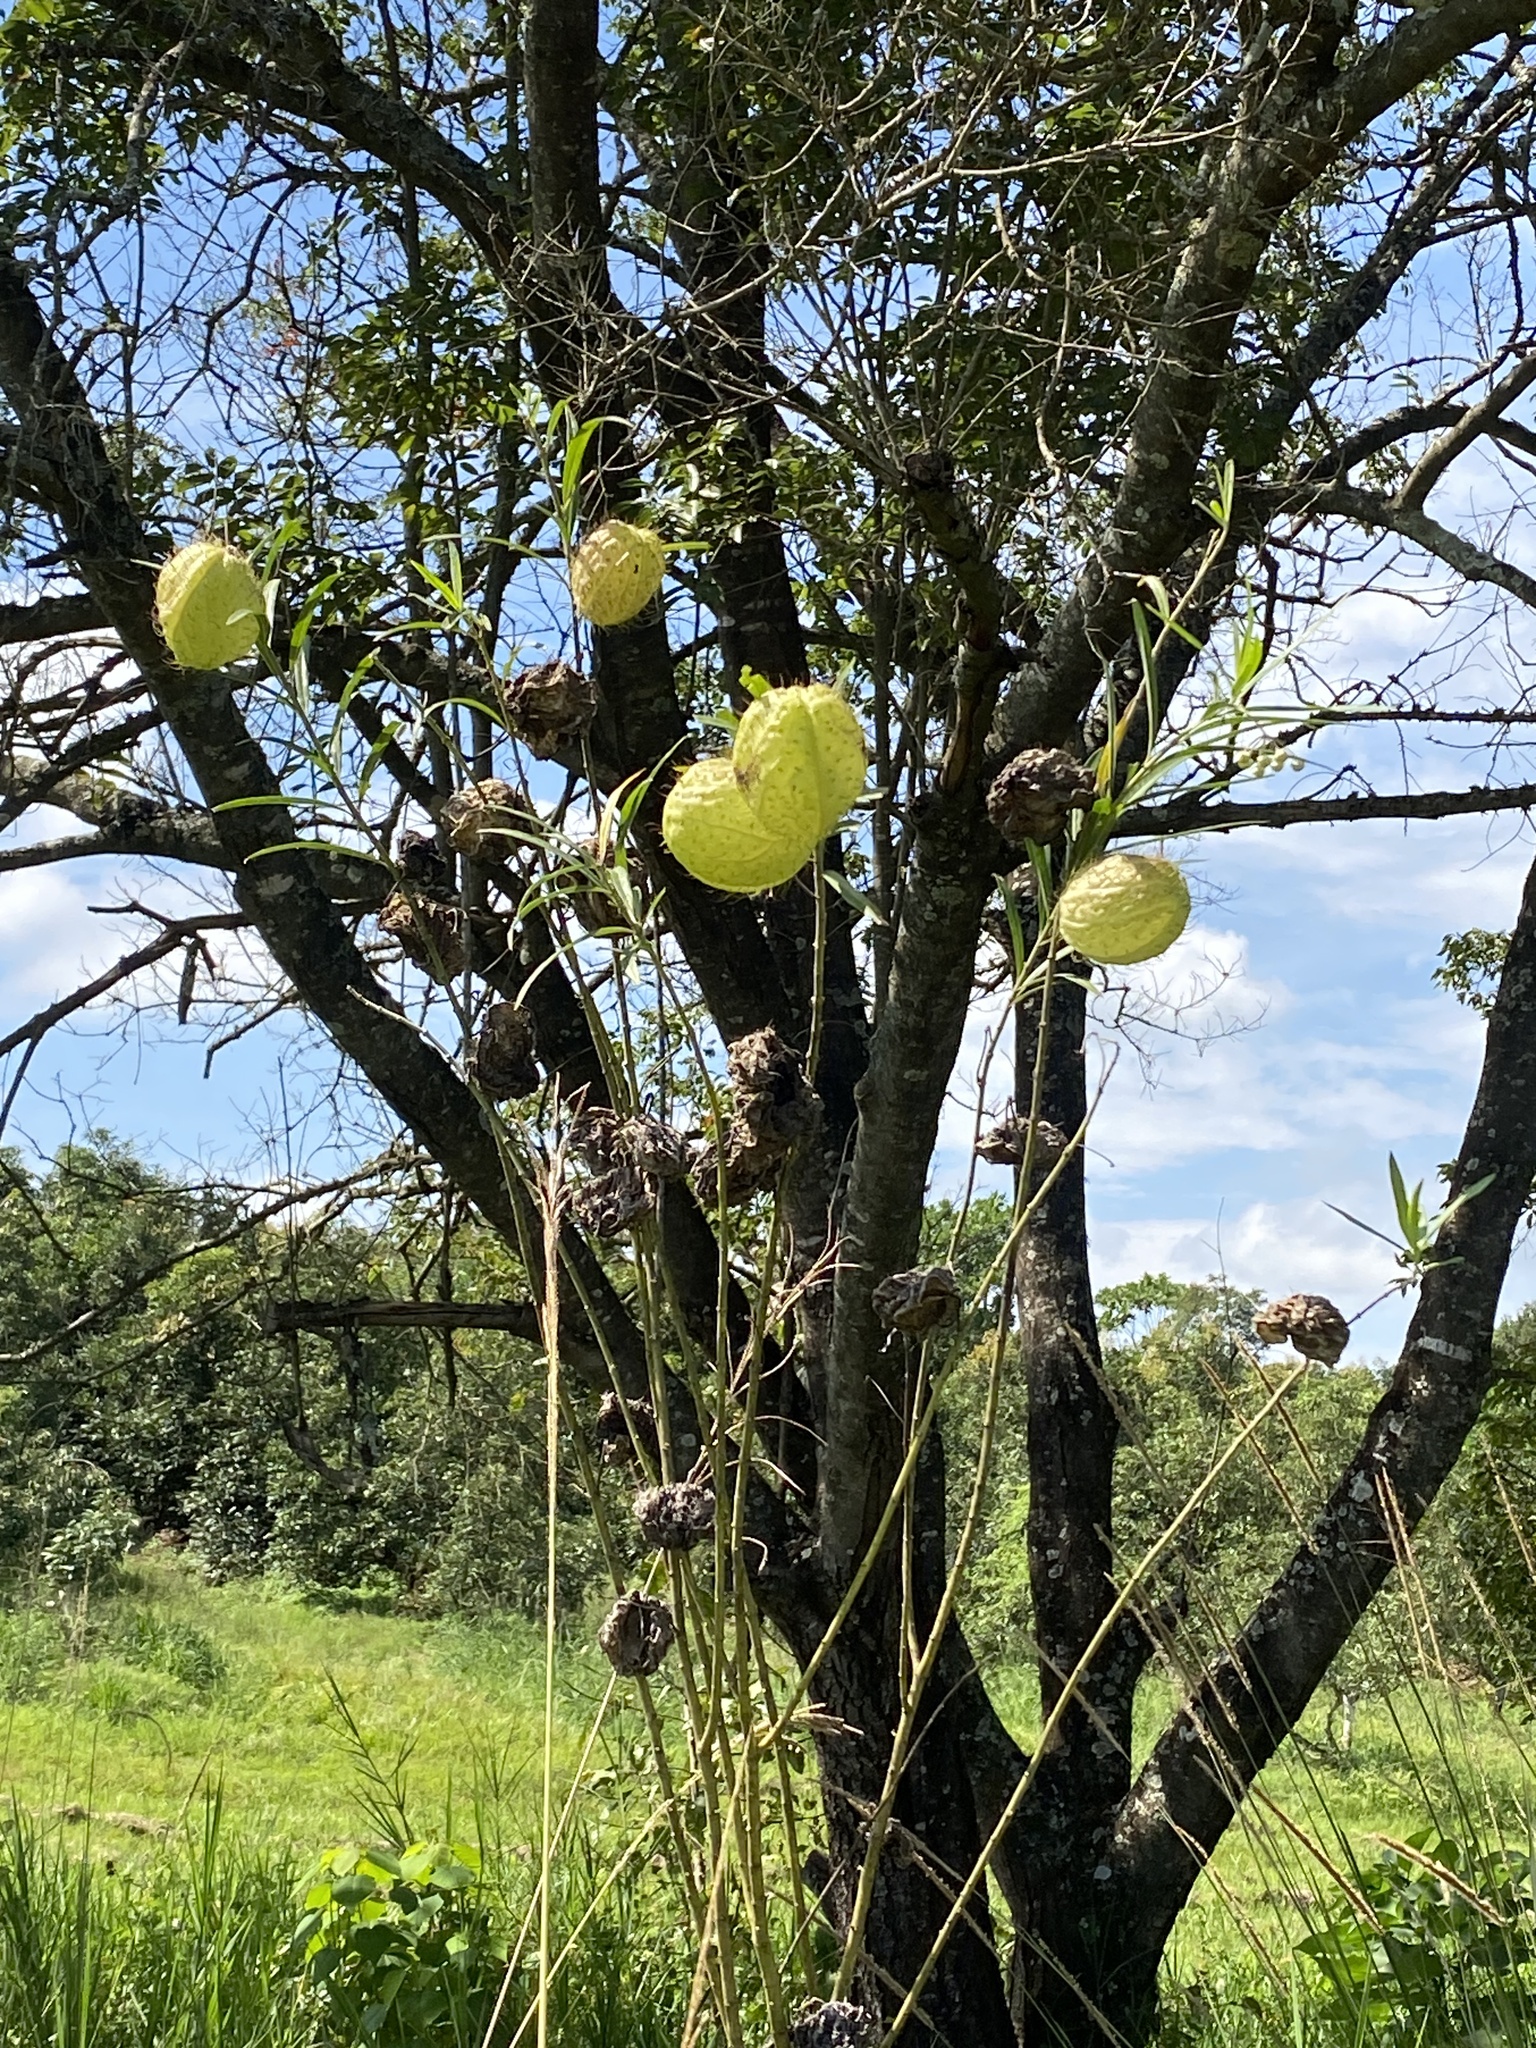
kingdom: Plantae
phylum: Tracheophyta
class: Magnoliopsida
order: Gentianales
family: Apocynaceae
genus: Gomphocarpus
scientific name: Gomphocarpus physocarpus
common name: Balloon cotton bush
